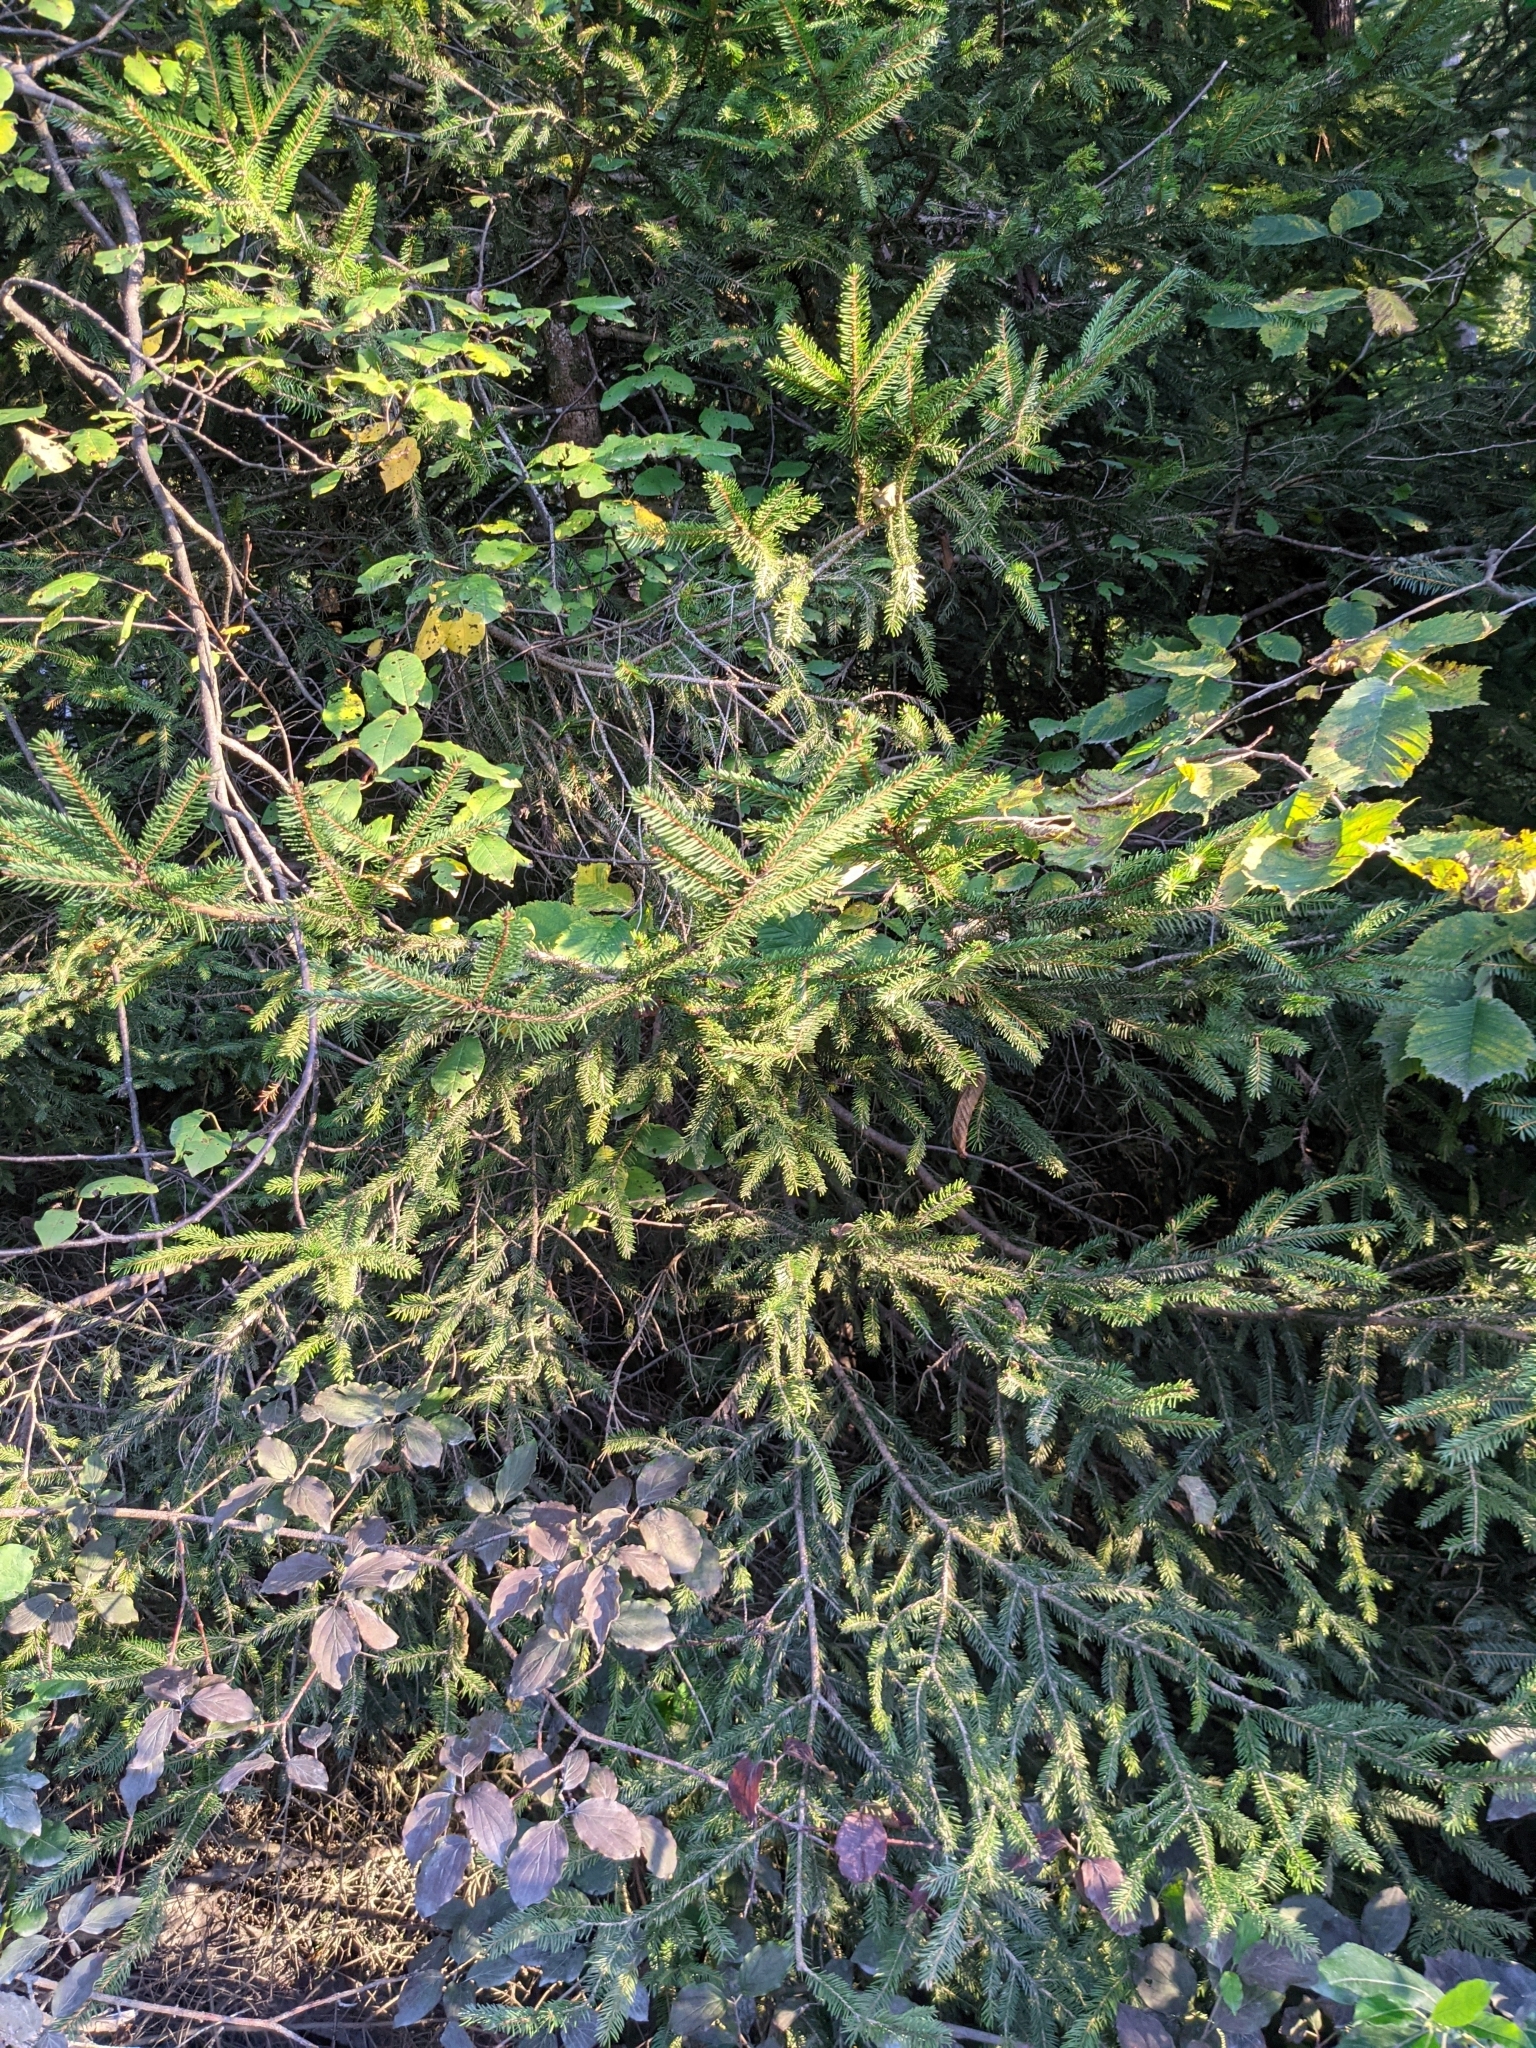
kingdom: Plantae
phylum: Tracheophyta
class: Pinopsida
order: Pinales
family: Pinaceae
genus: Picea
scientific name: Picea abies
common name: Norway spruce
